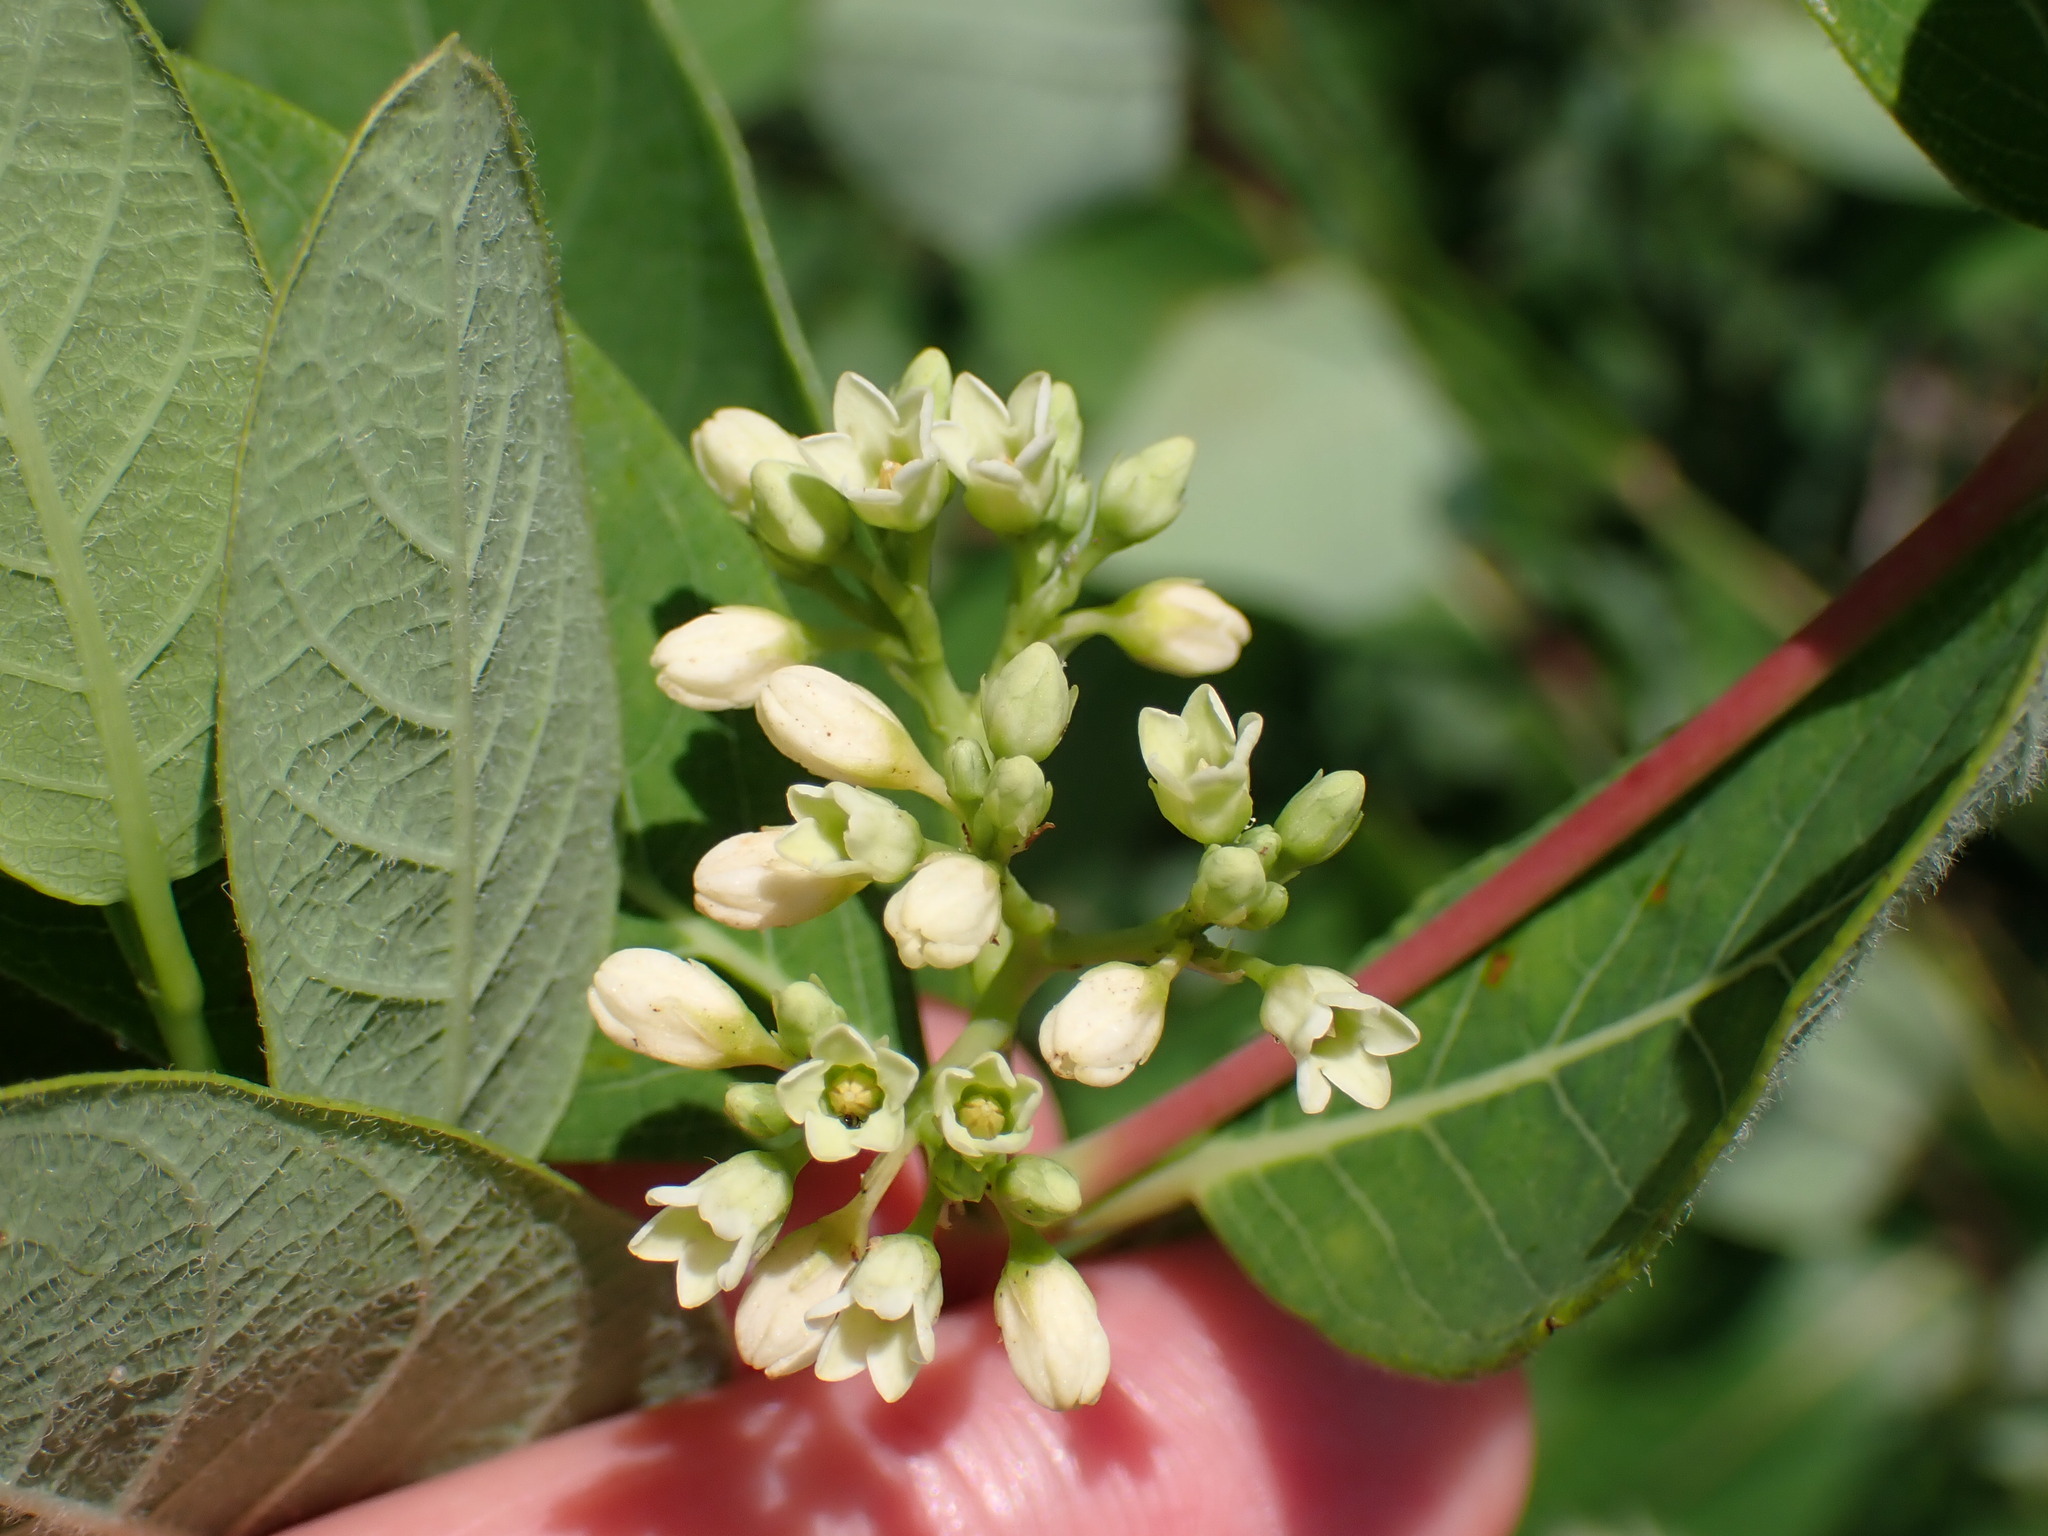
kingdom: Plantae
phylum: Tracheophyta
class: Magnoliopsida
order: Gentianales
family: Apocynaceae
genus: Apocynum
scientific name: Apocynum cannabinum
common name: Hemp dogbane
